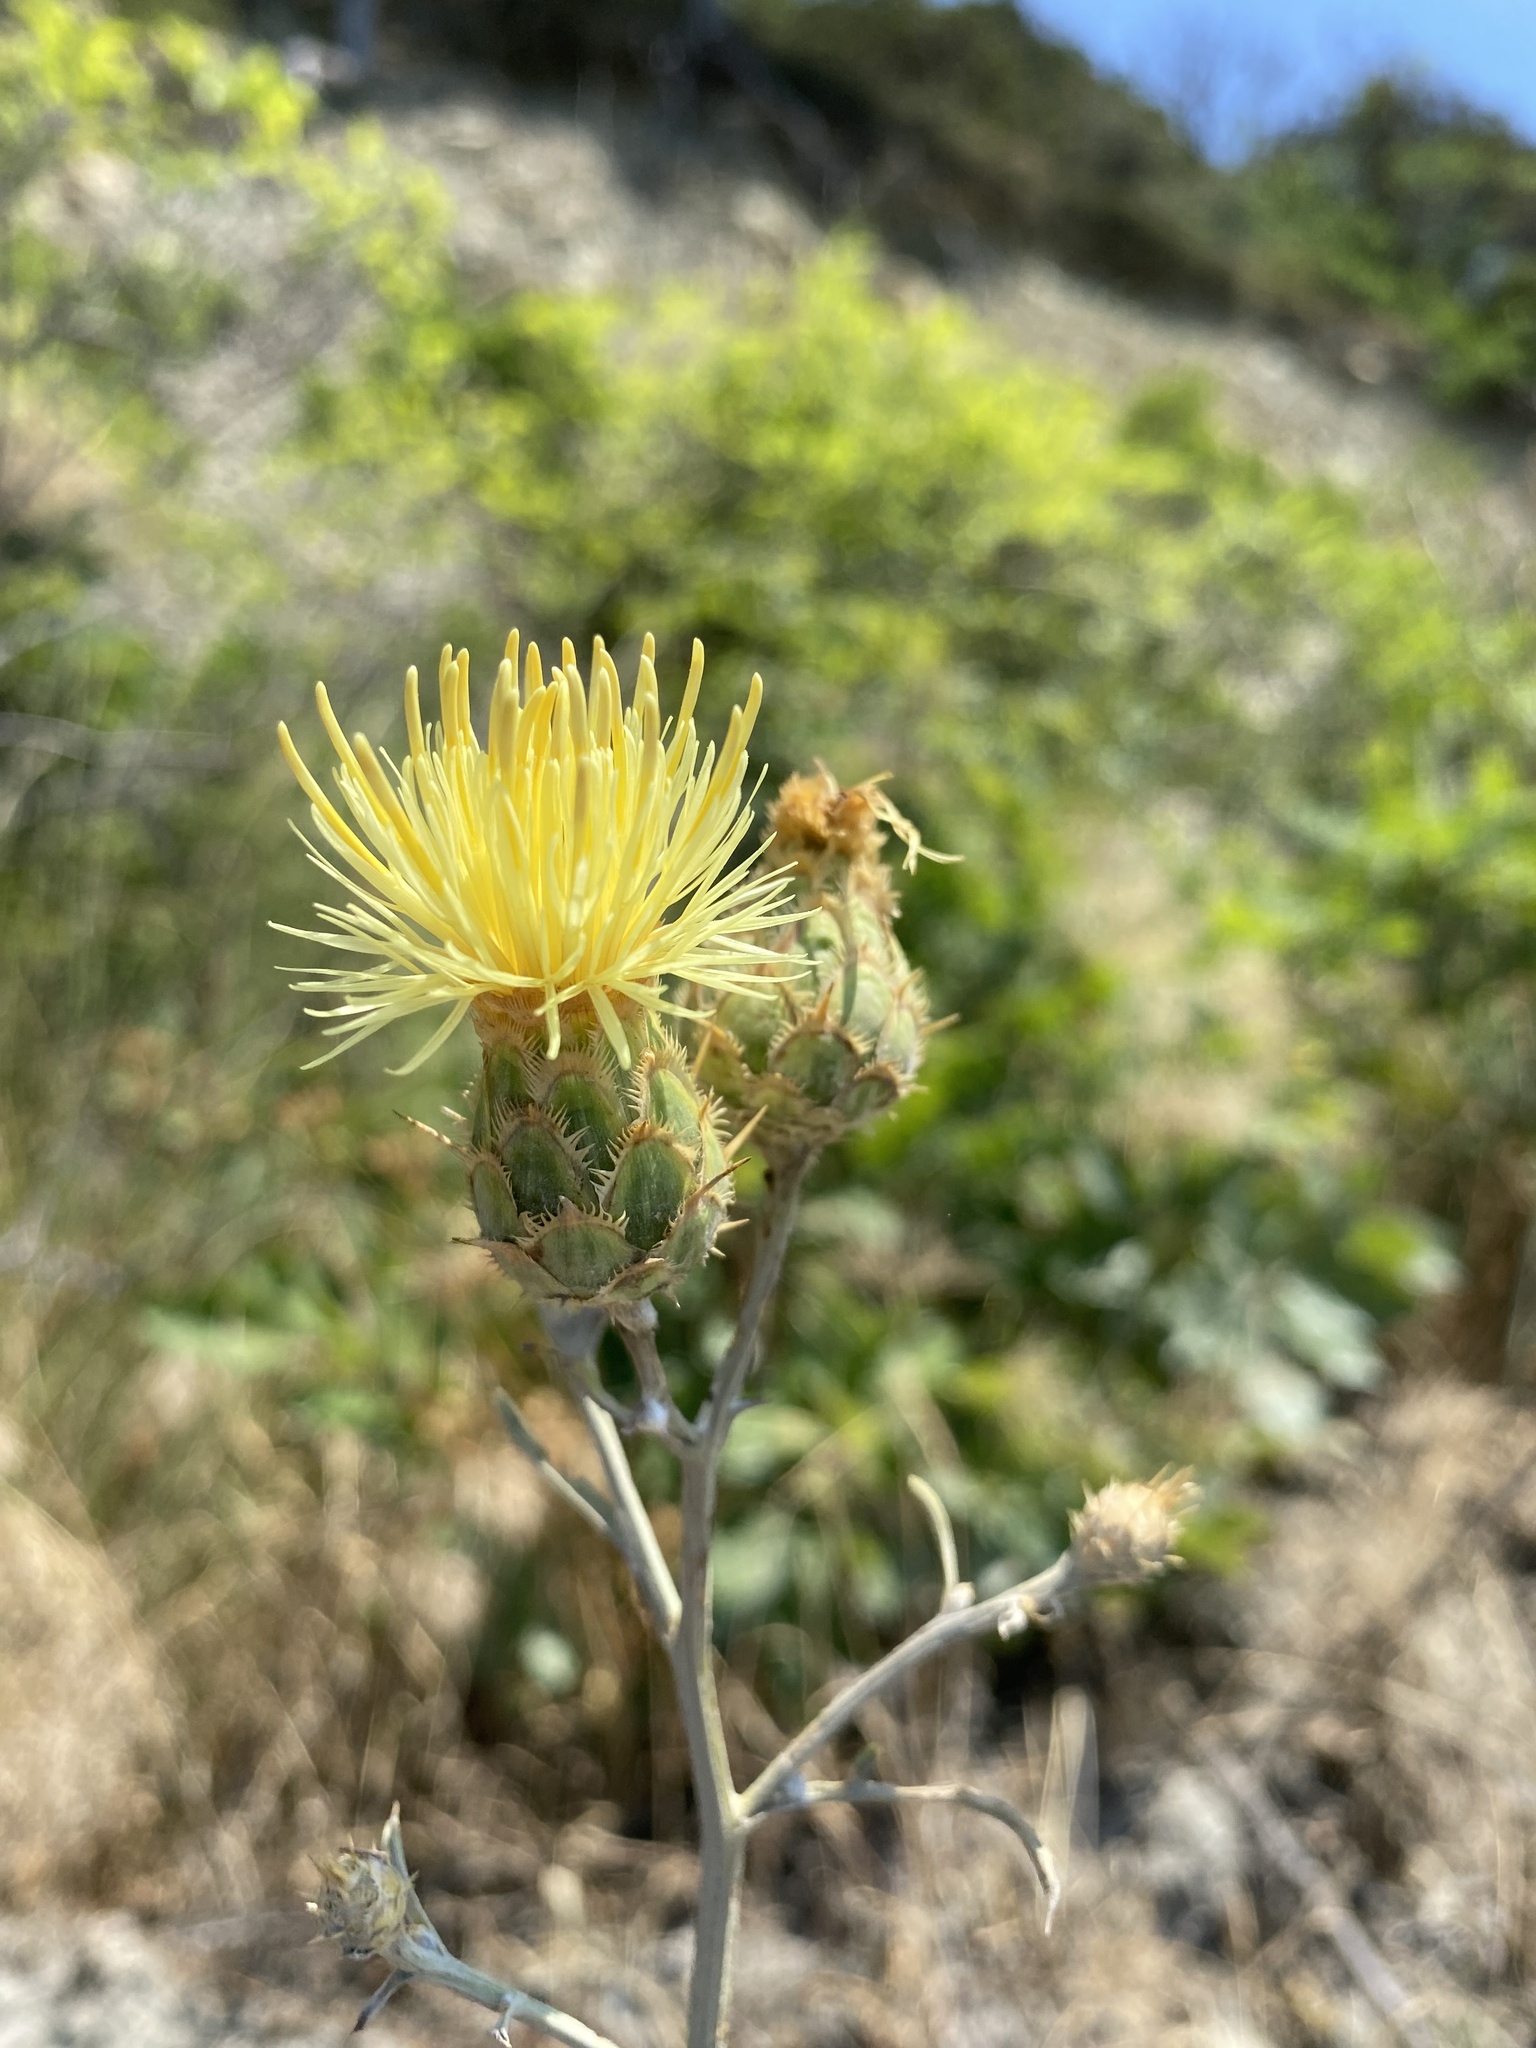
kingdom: Plantae
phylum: Tracheophyta
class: Magnoliopsida
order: Asterales
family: Asteraceae
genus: Centaurea
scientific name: Centaurea salonitana
